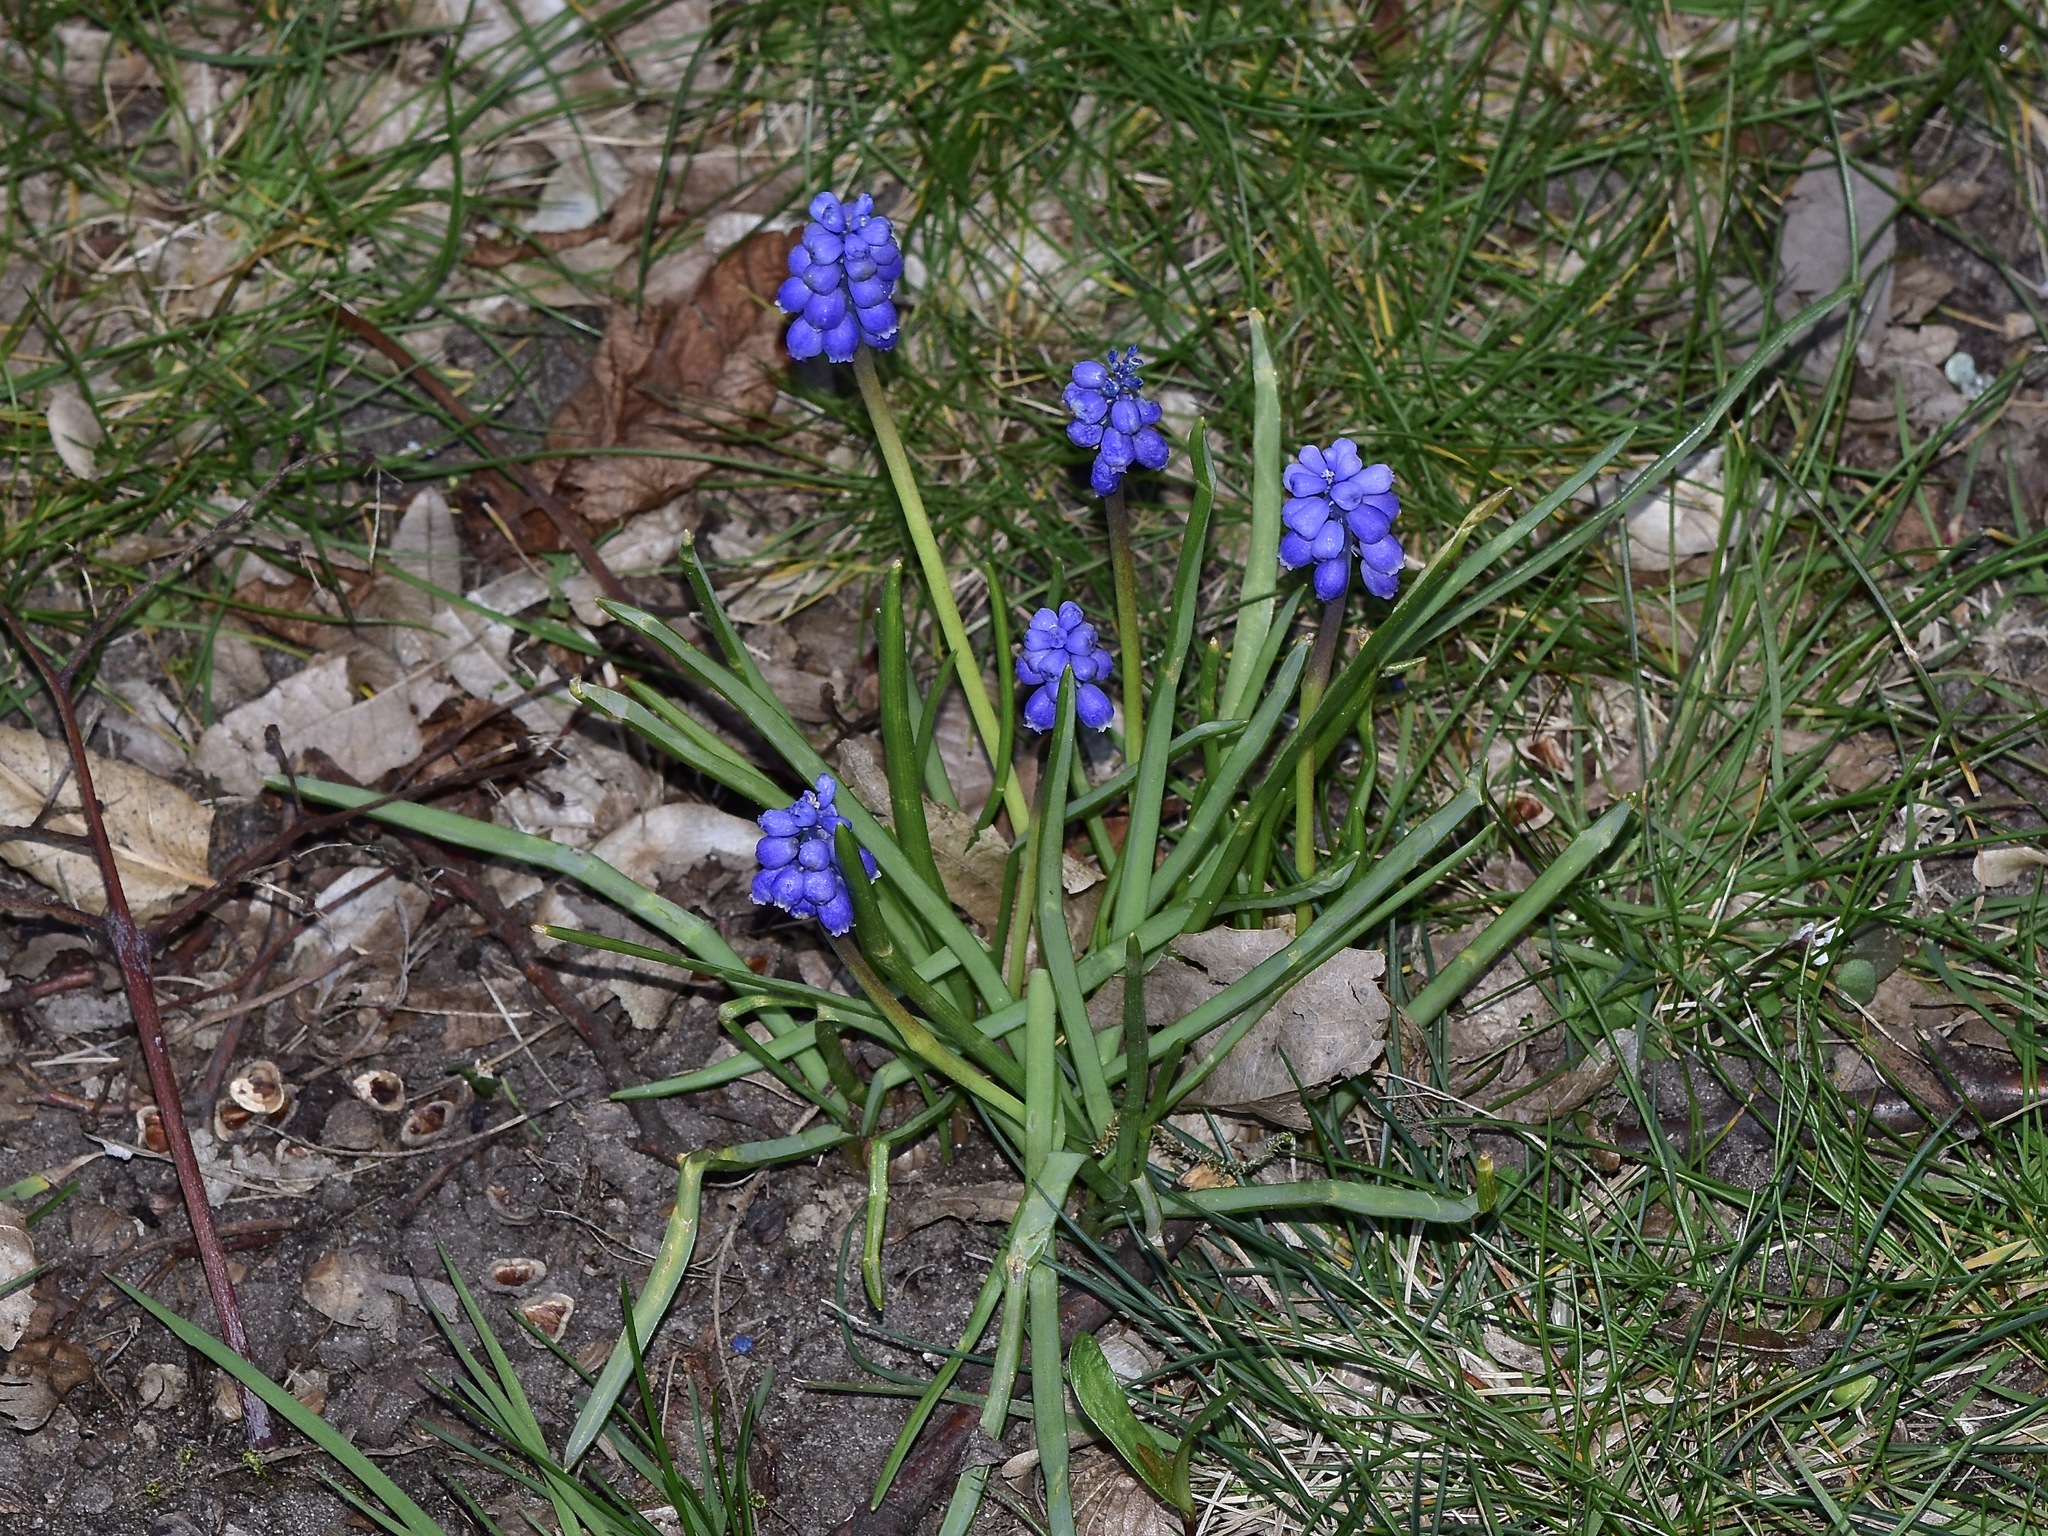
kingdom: Plantae
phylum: Tracheophyta
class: Liliopsida
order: Asparagales
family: Asparagaceae
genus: Muscari
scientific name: Muscari armeniacum
